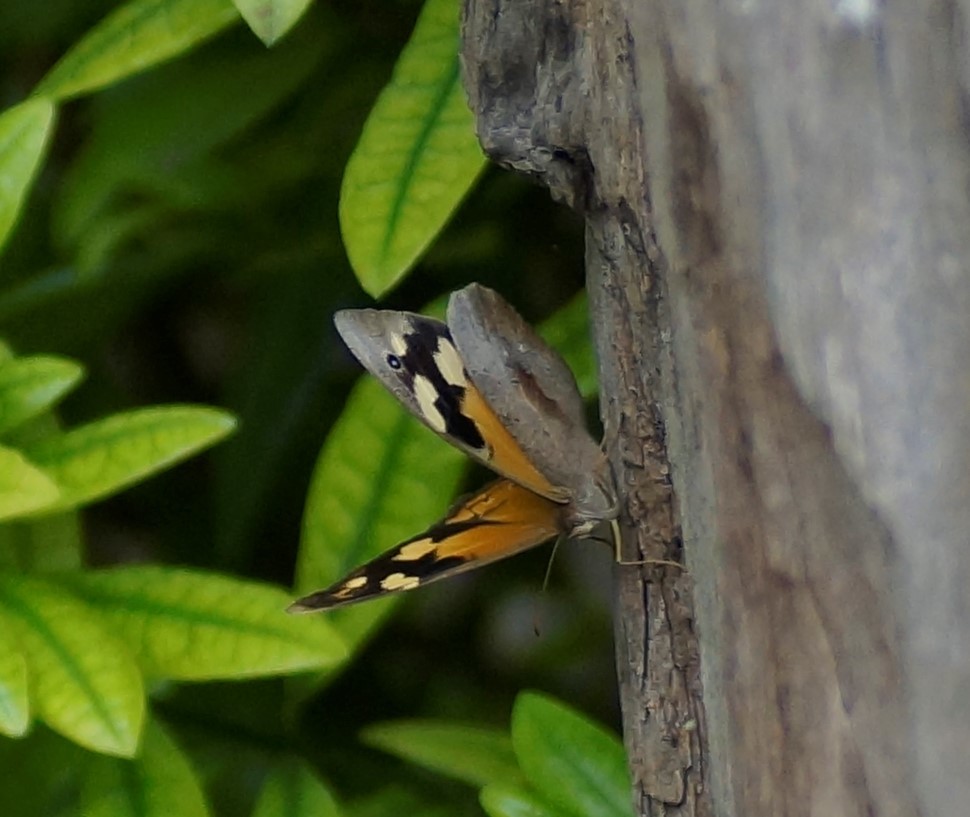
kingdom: Animalia
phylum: Arthropoda
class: Insecta
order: Lepidoptera
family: Nymphalidae
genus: Heteronympha
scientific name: Heteronympha merope
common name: Common brown
